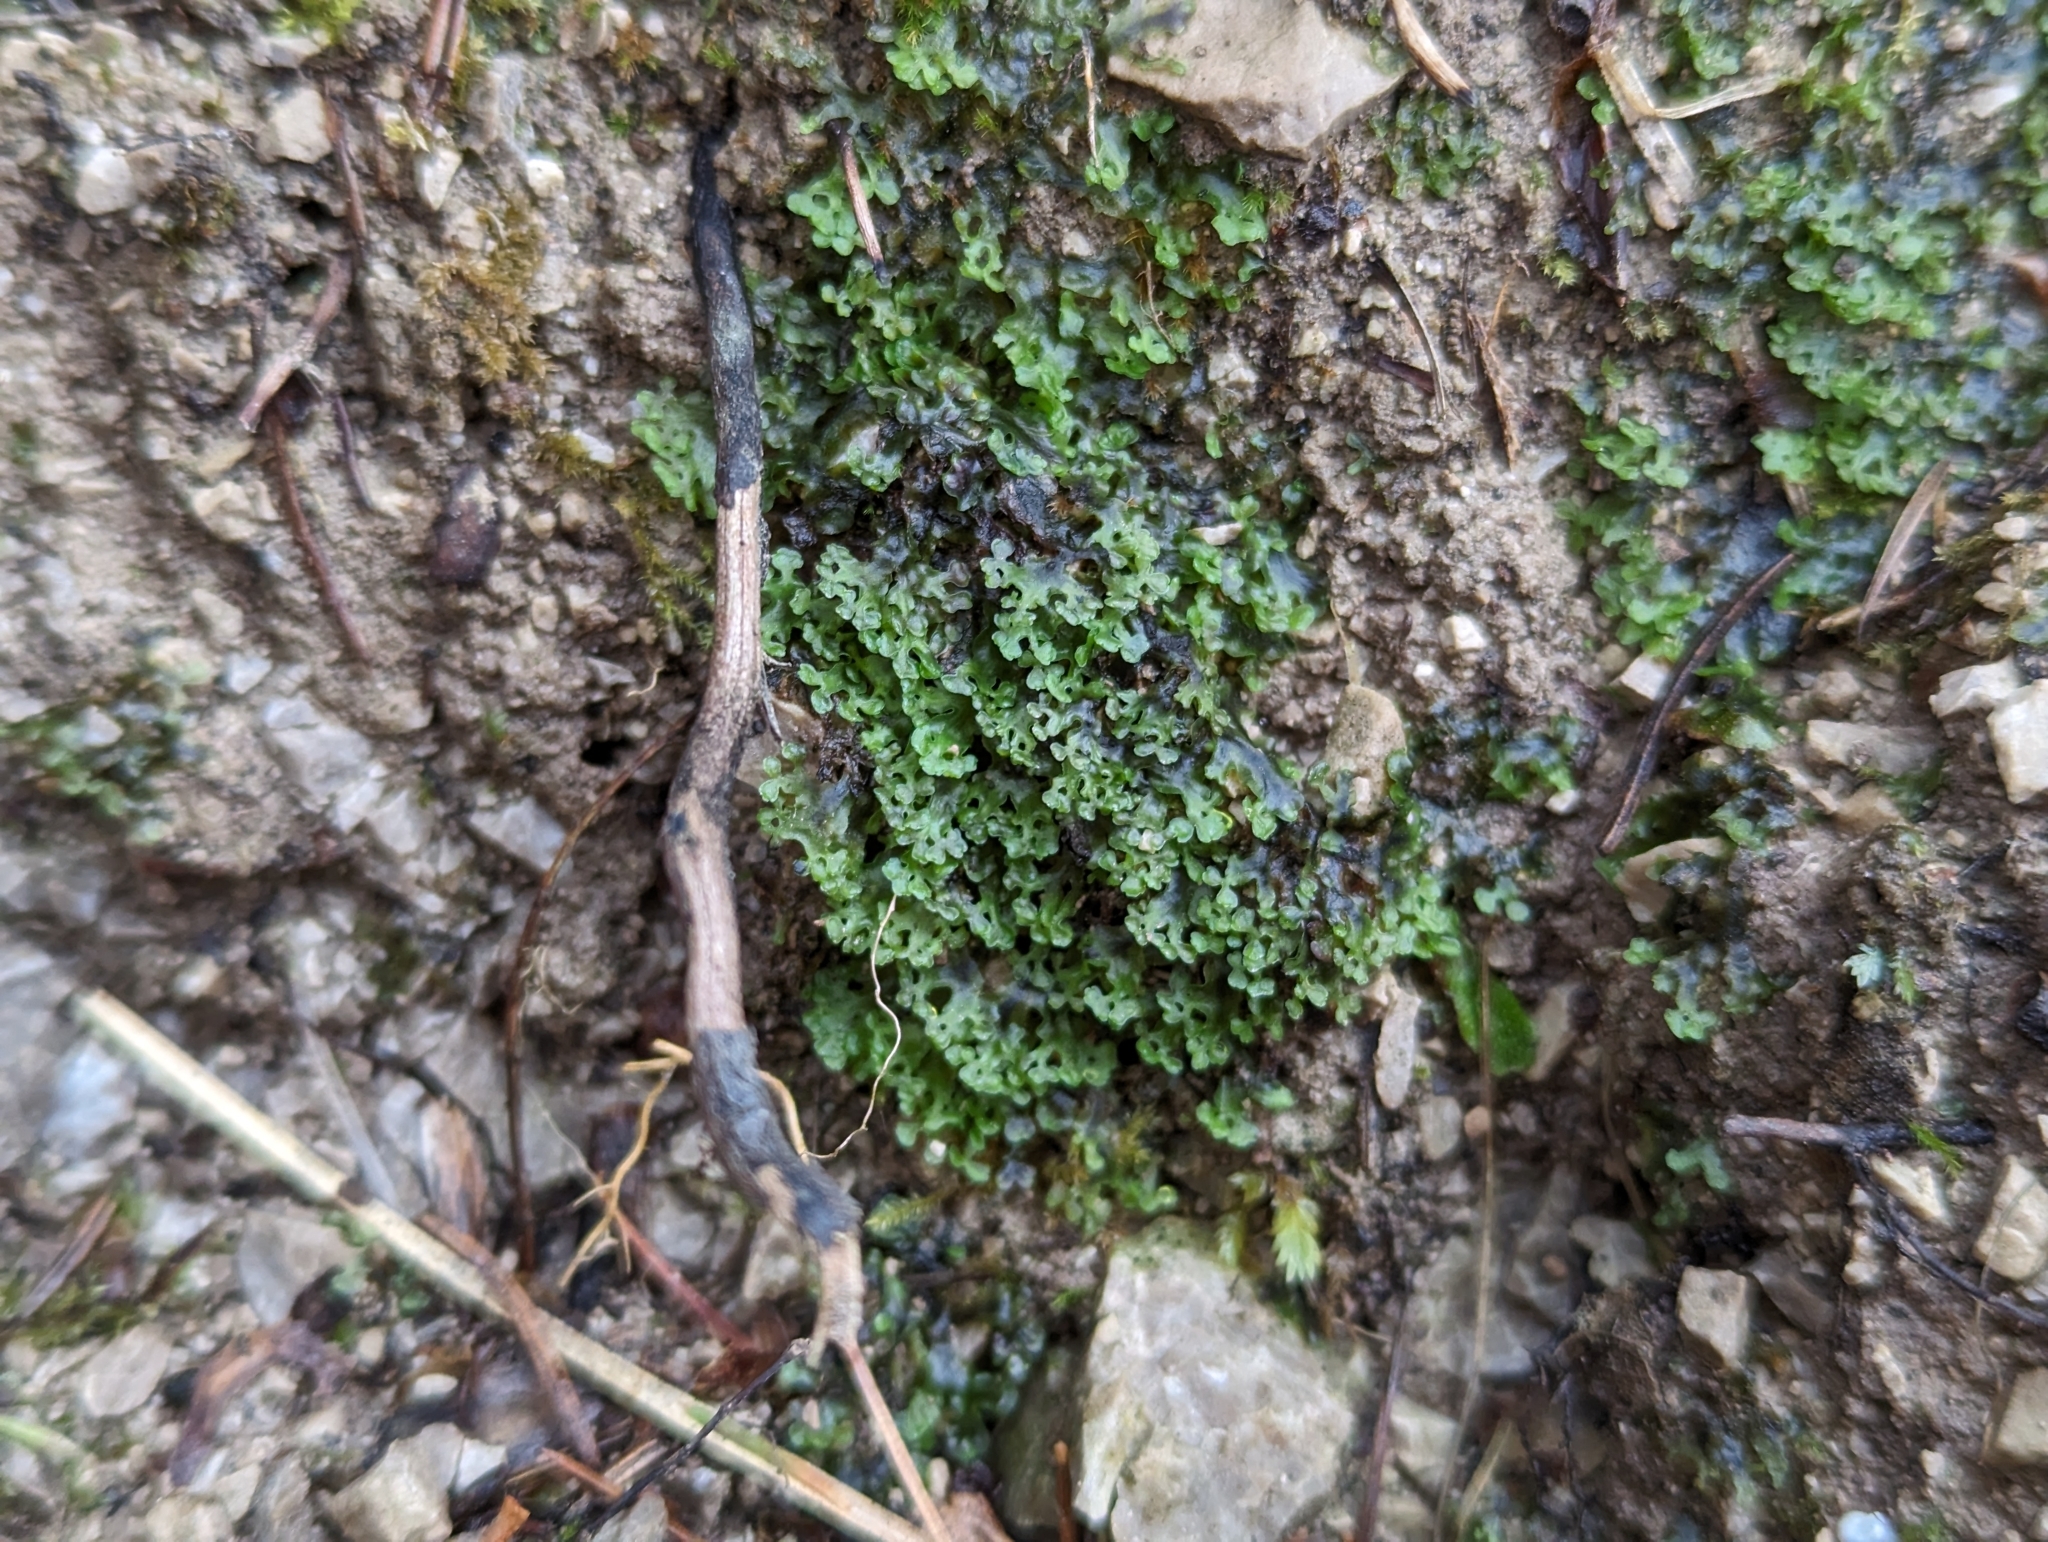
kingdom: Plantae
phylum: Marchantiophyta
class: Jungermanniopsida
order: Pelliales
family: Pelliaceae
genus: Apopellia
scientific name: Apopellia endiviifolia
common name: Endive pellia
